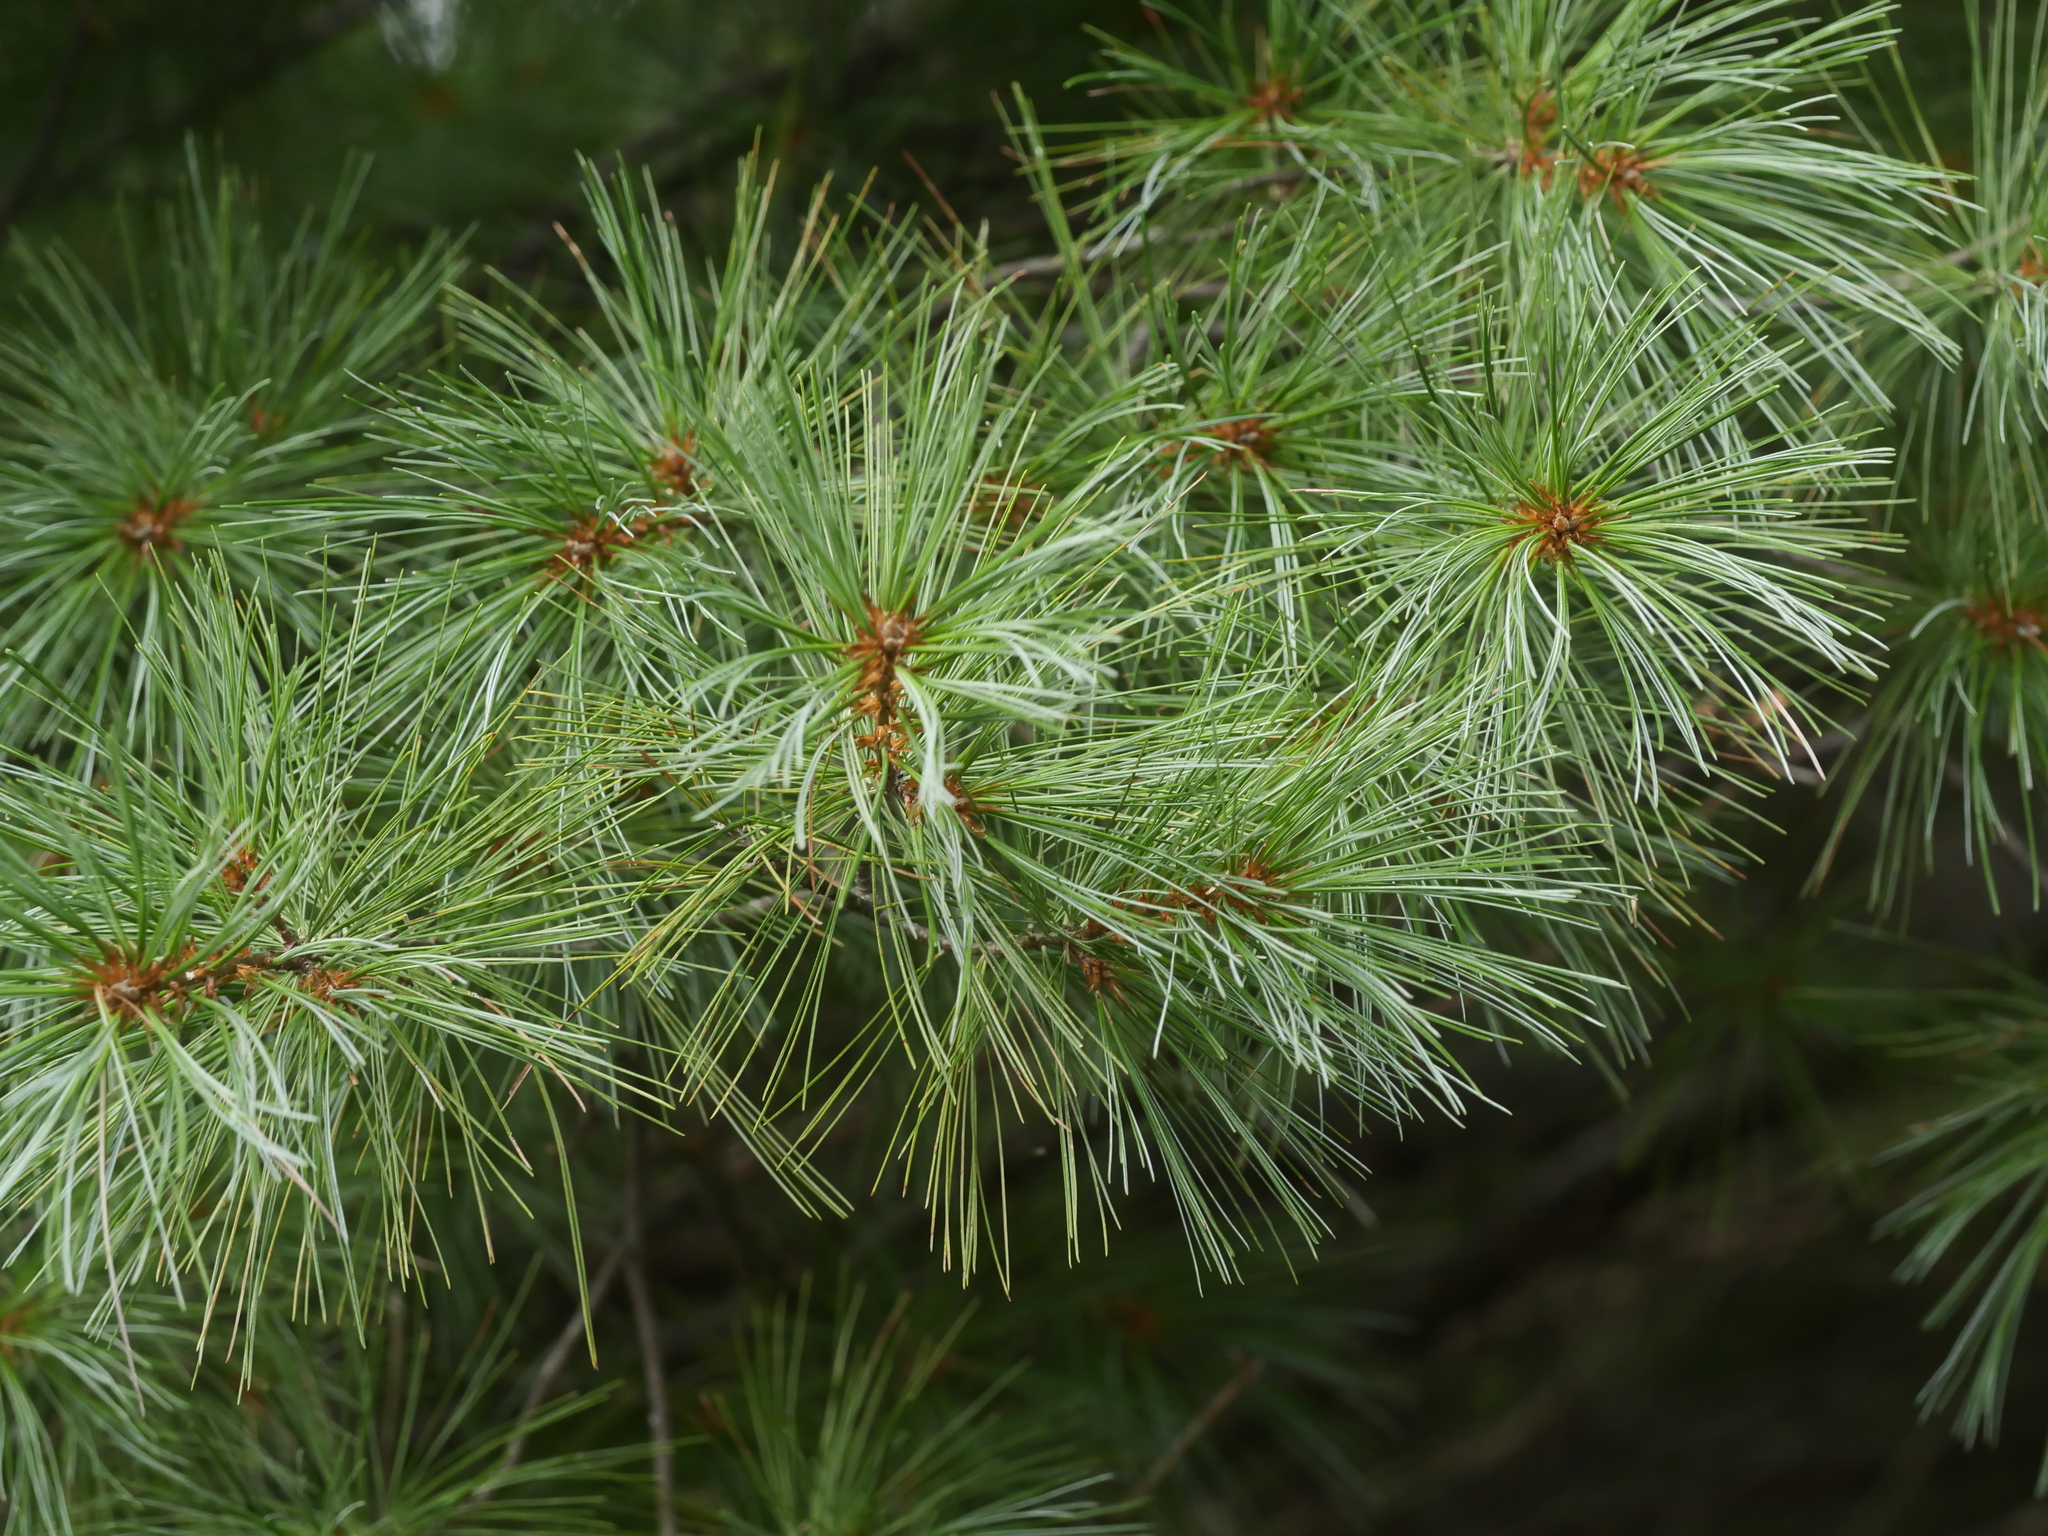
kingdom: Plantae
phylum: Tracheophyta
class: Pinopsida
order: Pinales
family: Pinaceae
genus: Pinus
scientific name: Pinus strobus
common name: Weymouth pine
